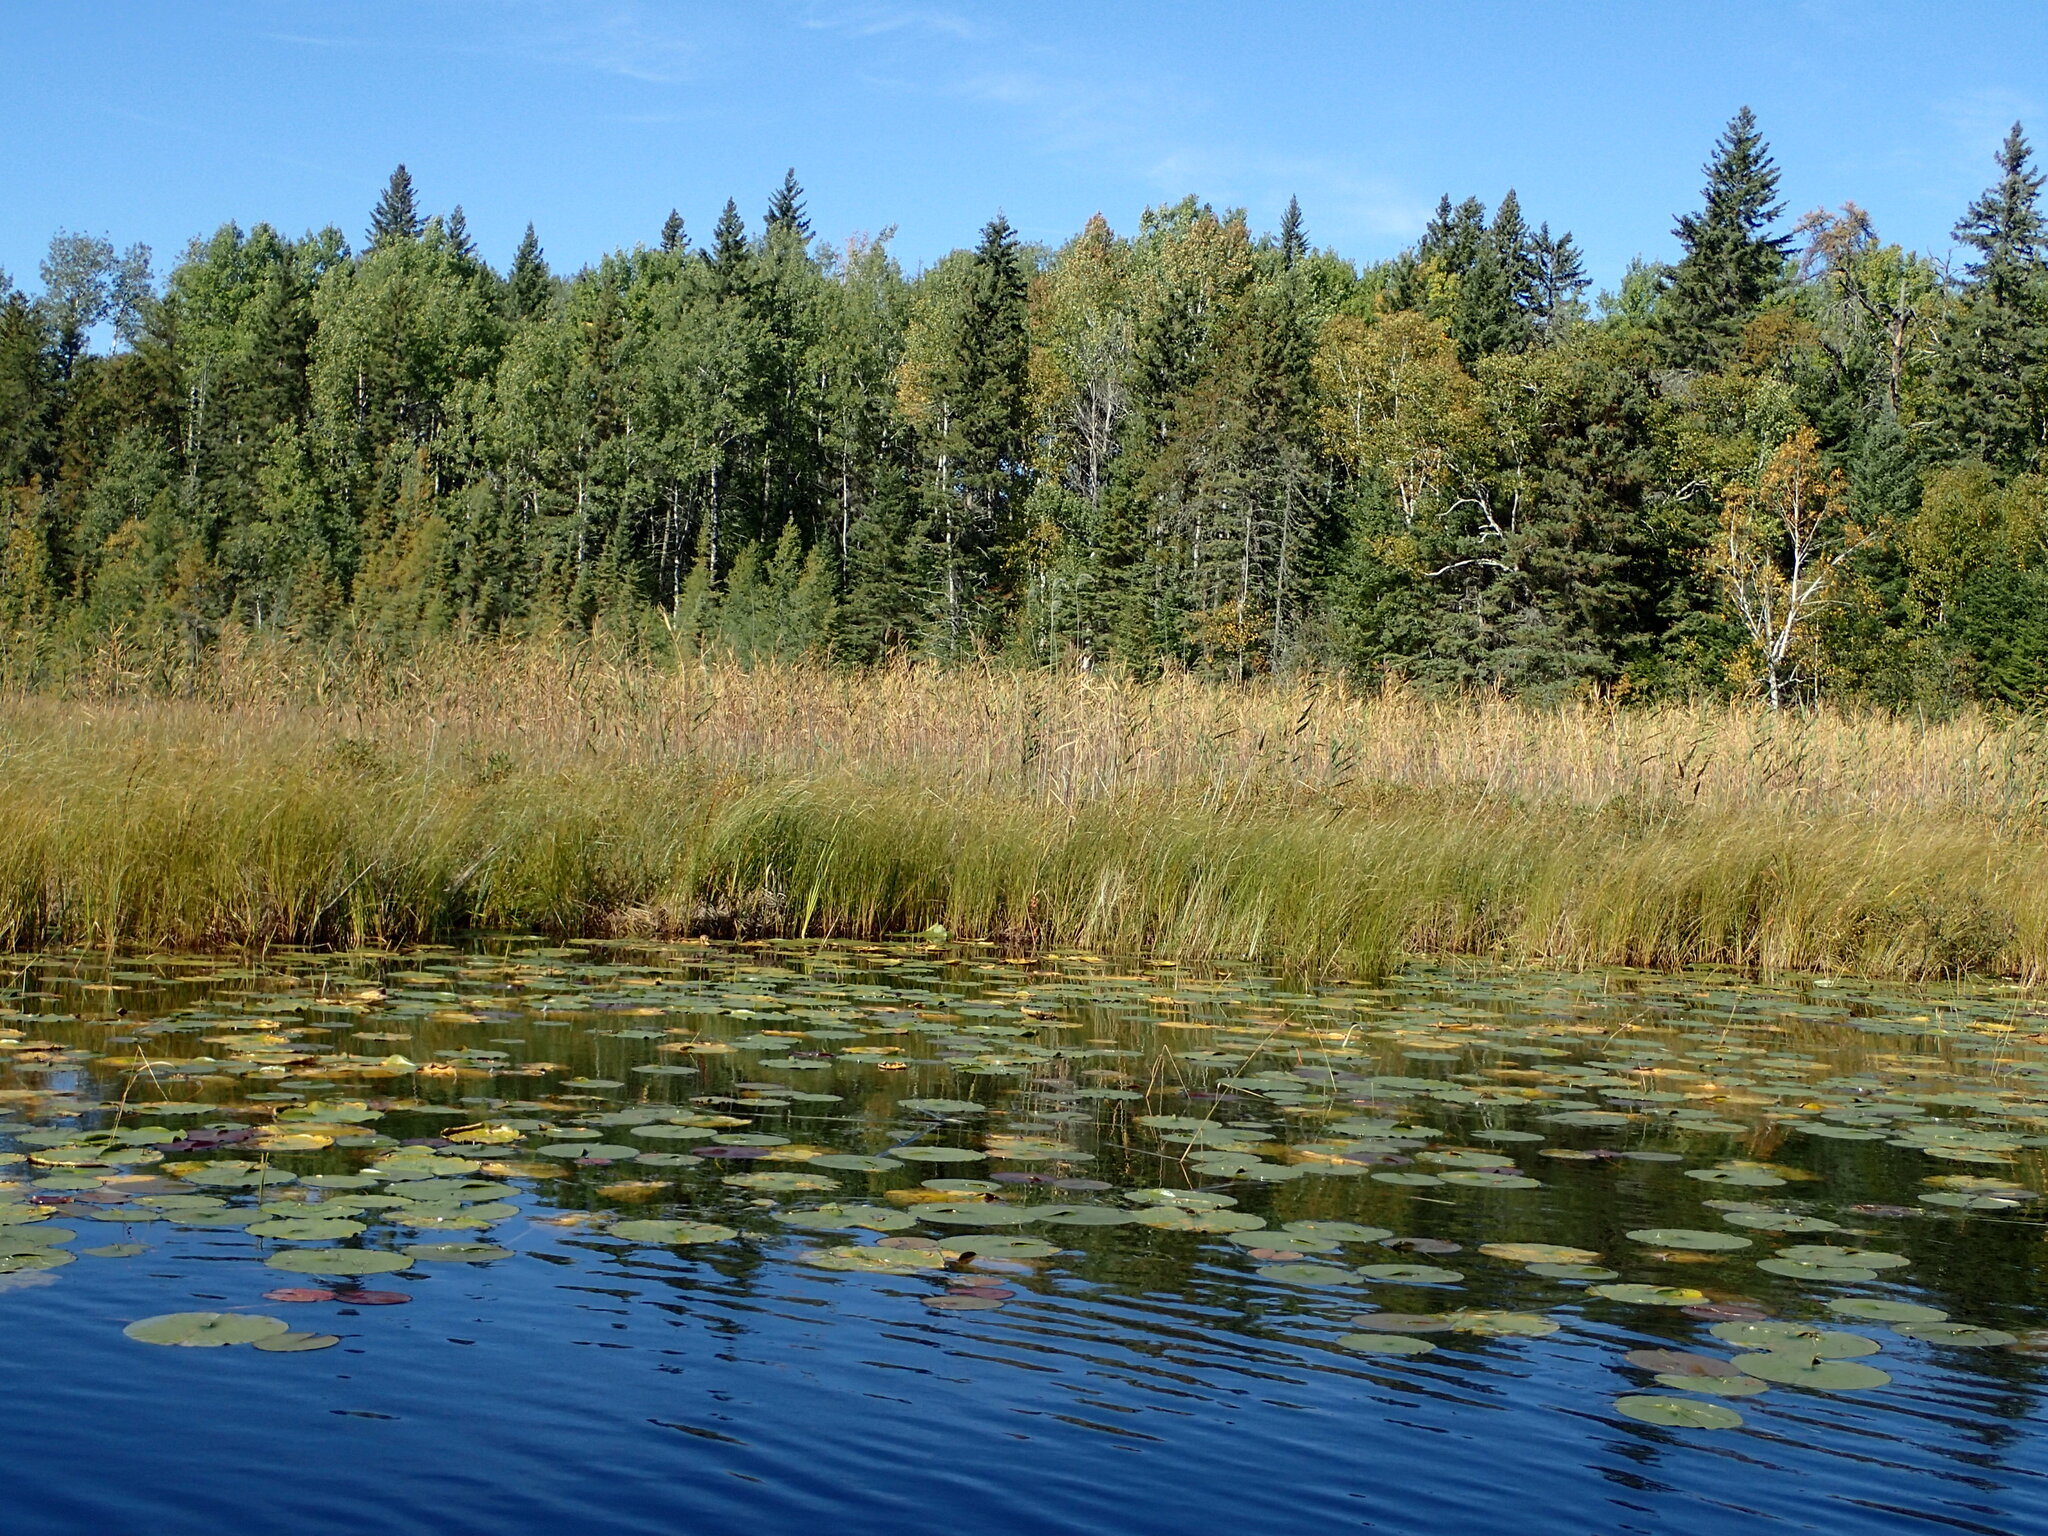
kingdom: Plantae
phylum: Tracheophyta
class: Liliopsida
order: Poales
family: Poaceae
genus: Phragmites
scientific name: Phragmites australis
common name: Common reed
